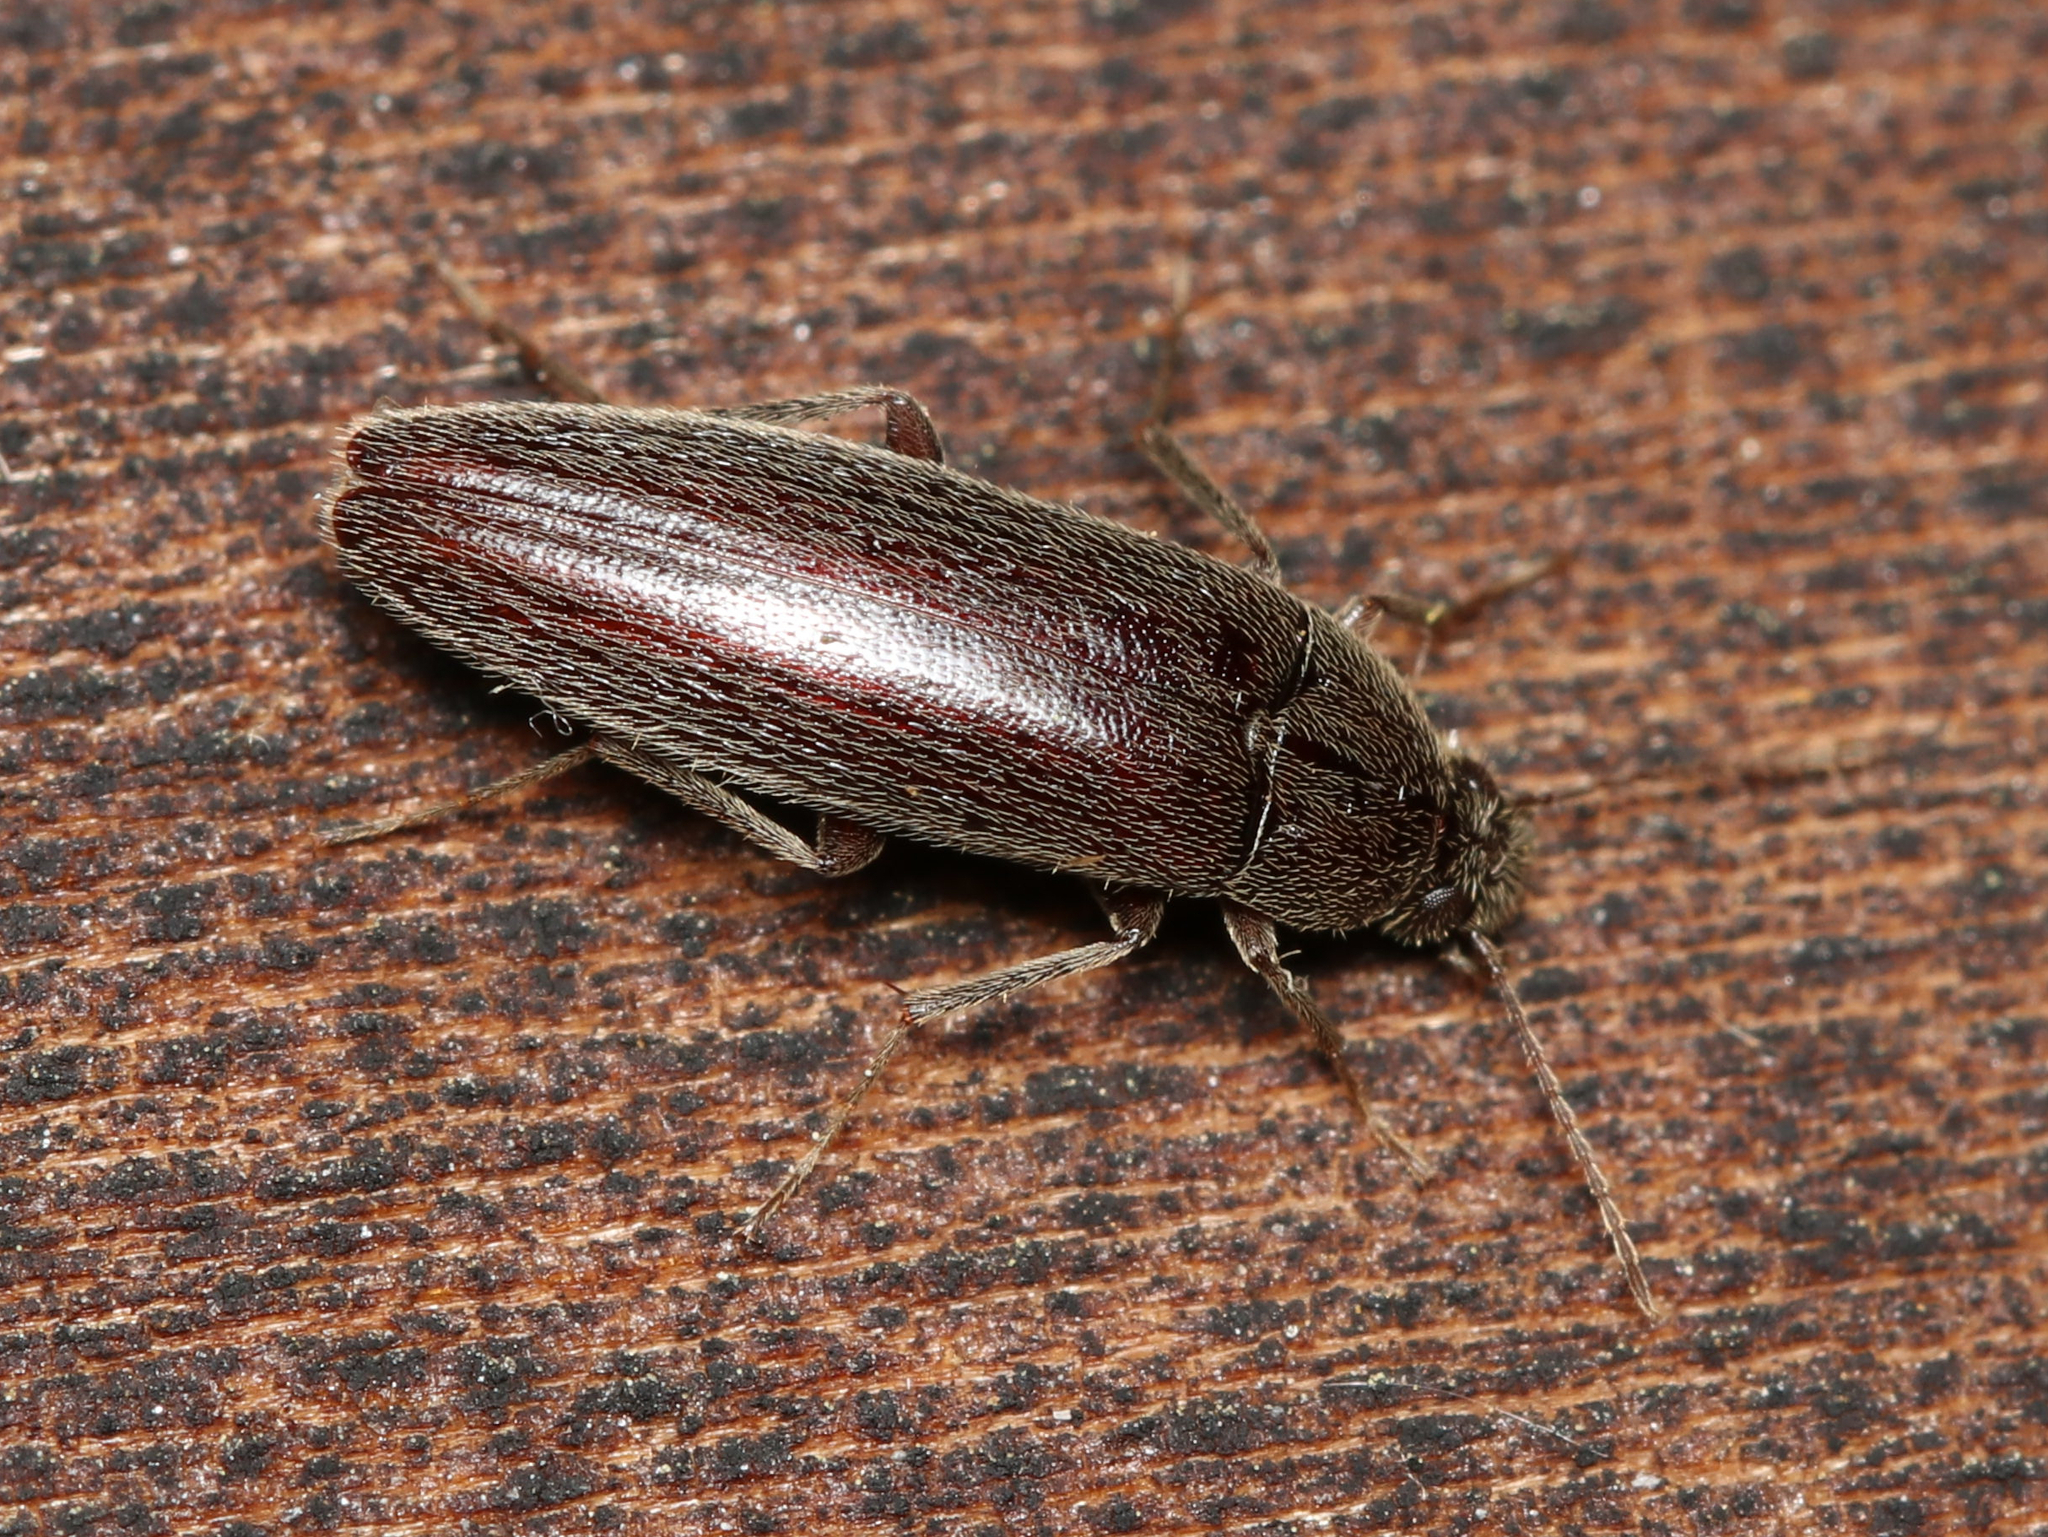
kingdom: Animalia
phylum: Arthropoda
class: Insecta
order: Coleoptera
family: Synchroidae
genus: Synchroa
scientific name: Synchroa punctata
